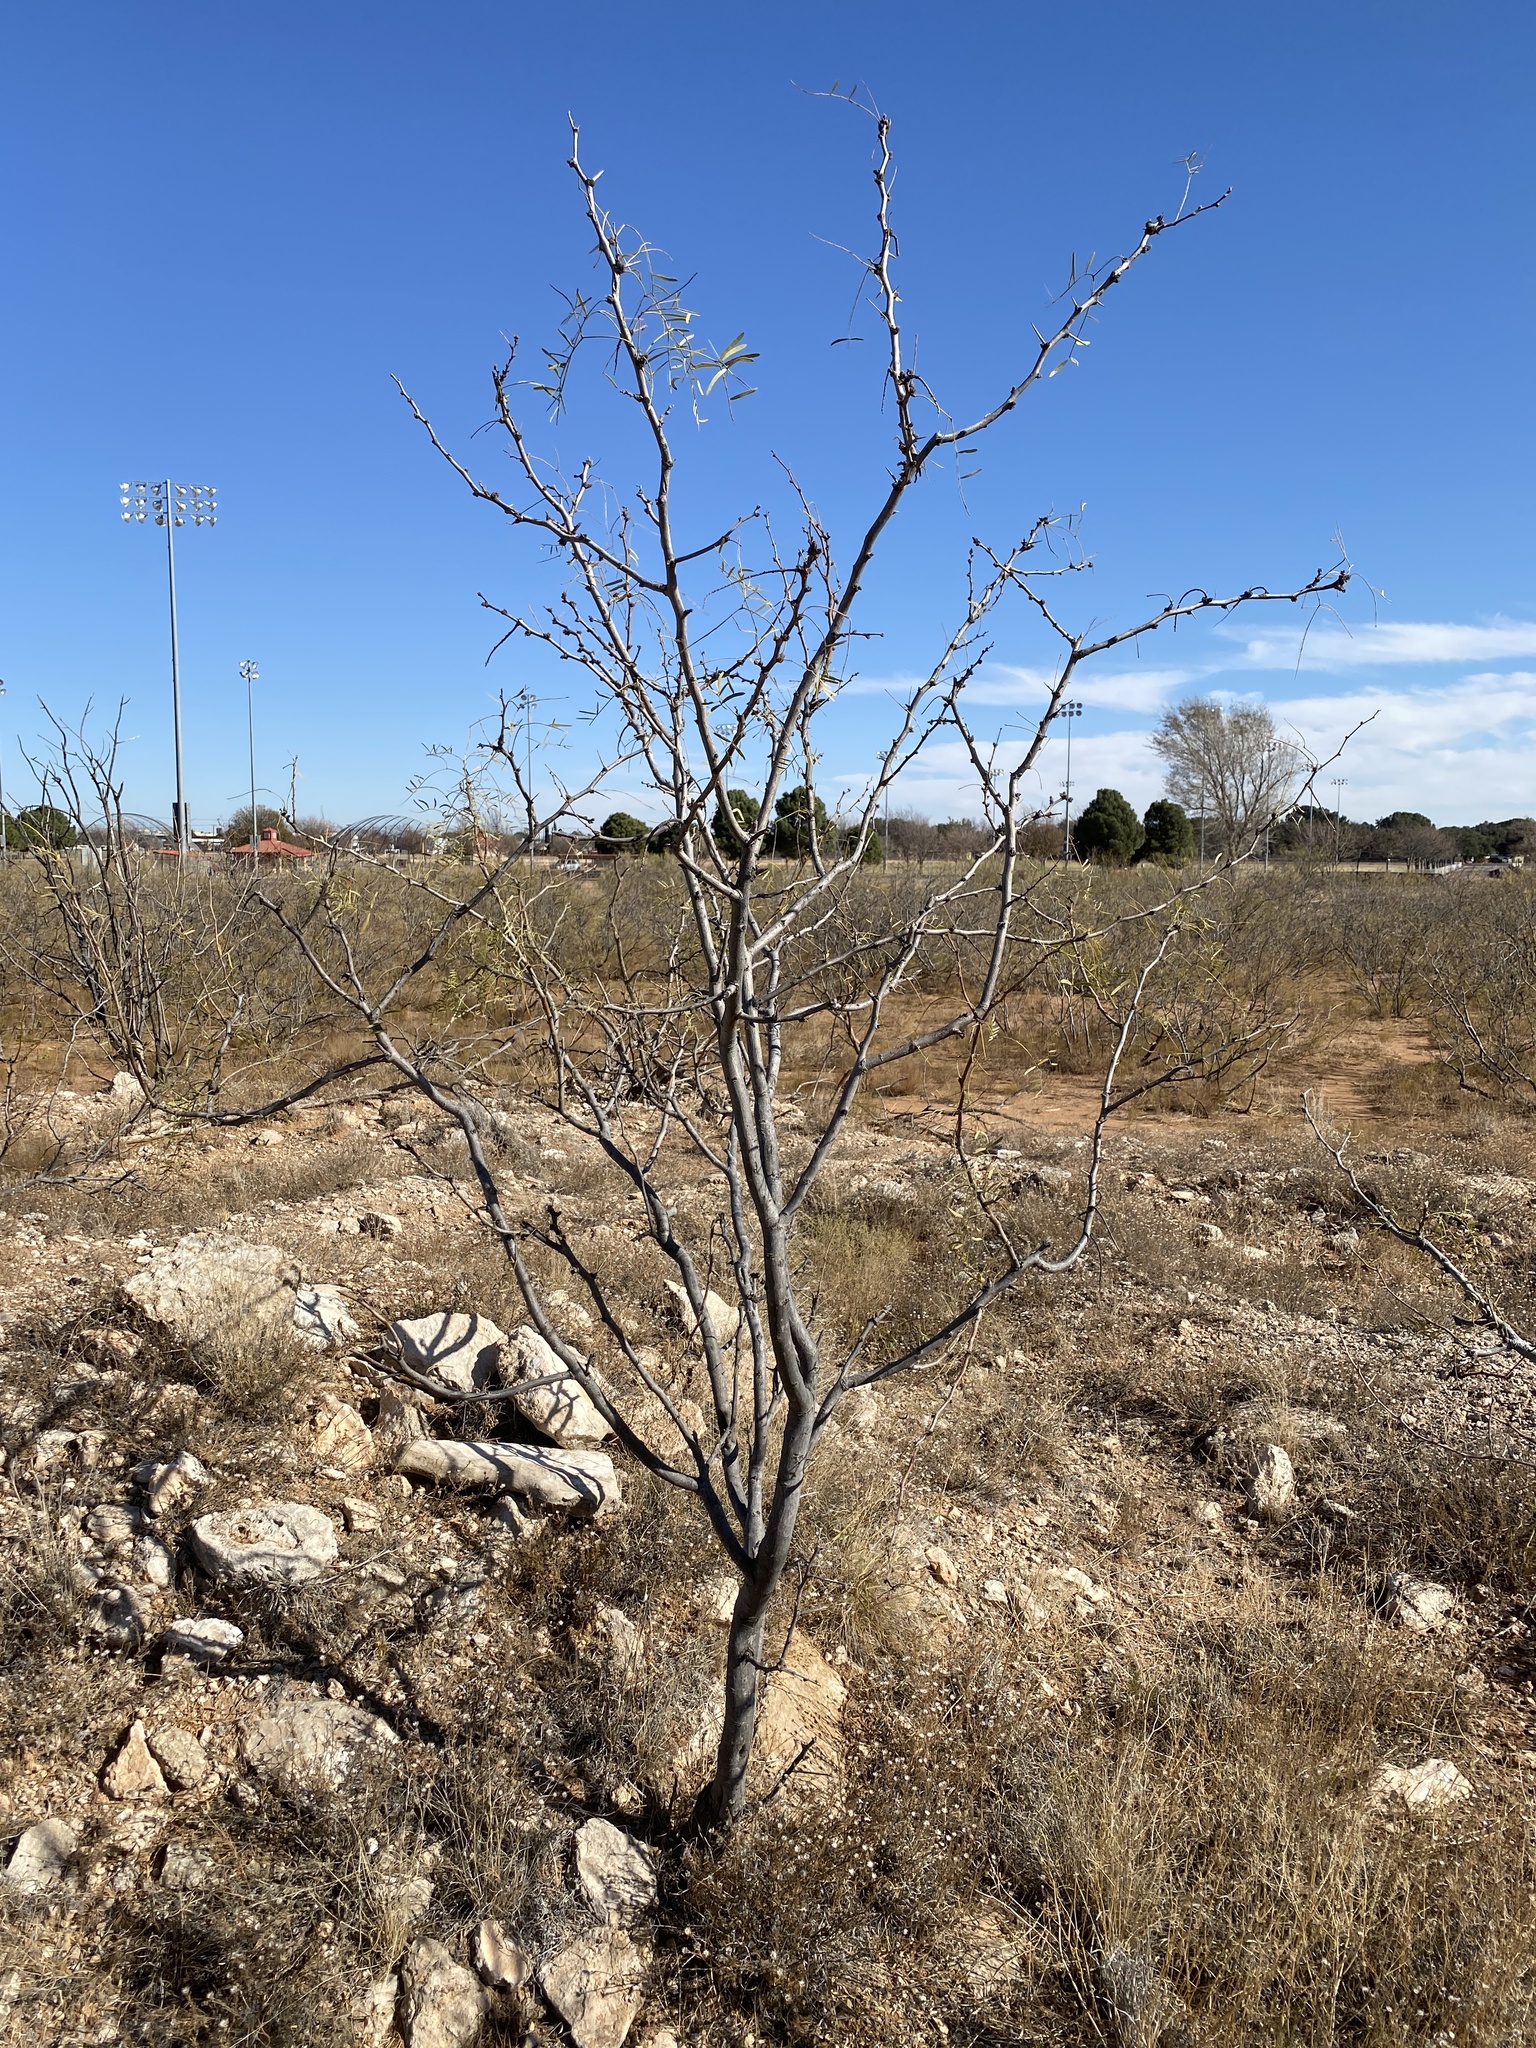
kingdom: Plantae
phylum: Tracheophyta
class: Magnoliopsida
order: Fabales
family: Fabaceae
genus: Prosopis
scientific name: Prosopis glandulosa
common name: Honey mesquite
